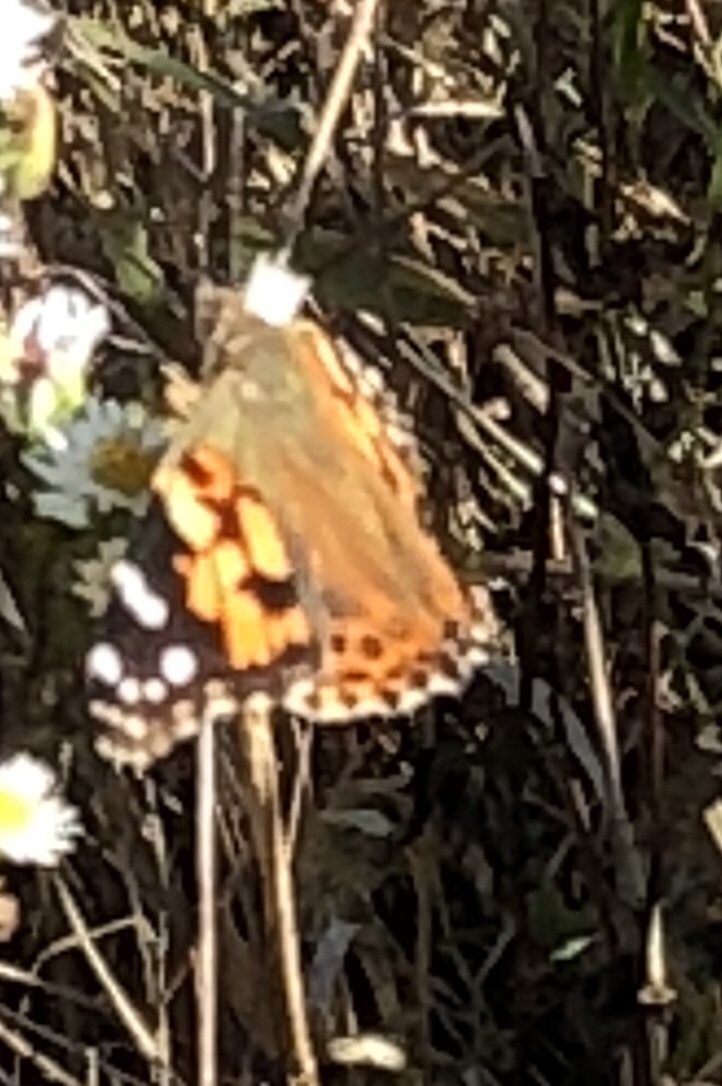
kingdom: Animalia
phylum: Arthropoda
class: Insecta
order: Lepidoptera
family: Nymphalidae
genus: Vanessa
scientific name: Vanessa cardui
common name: Painted lady
